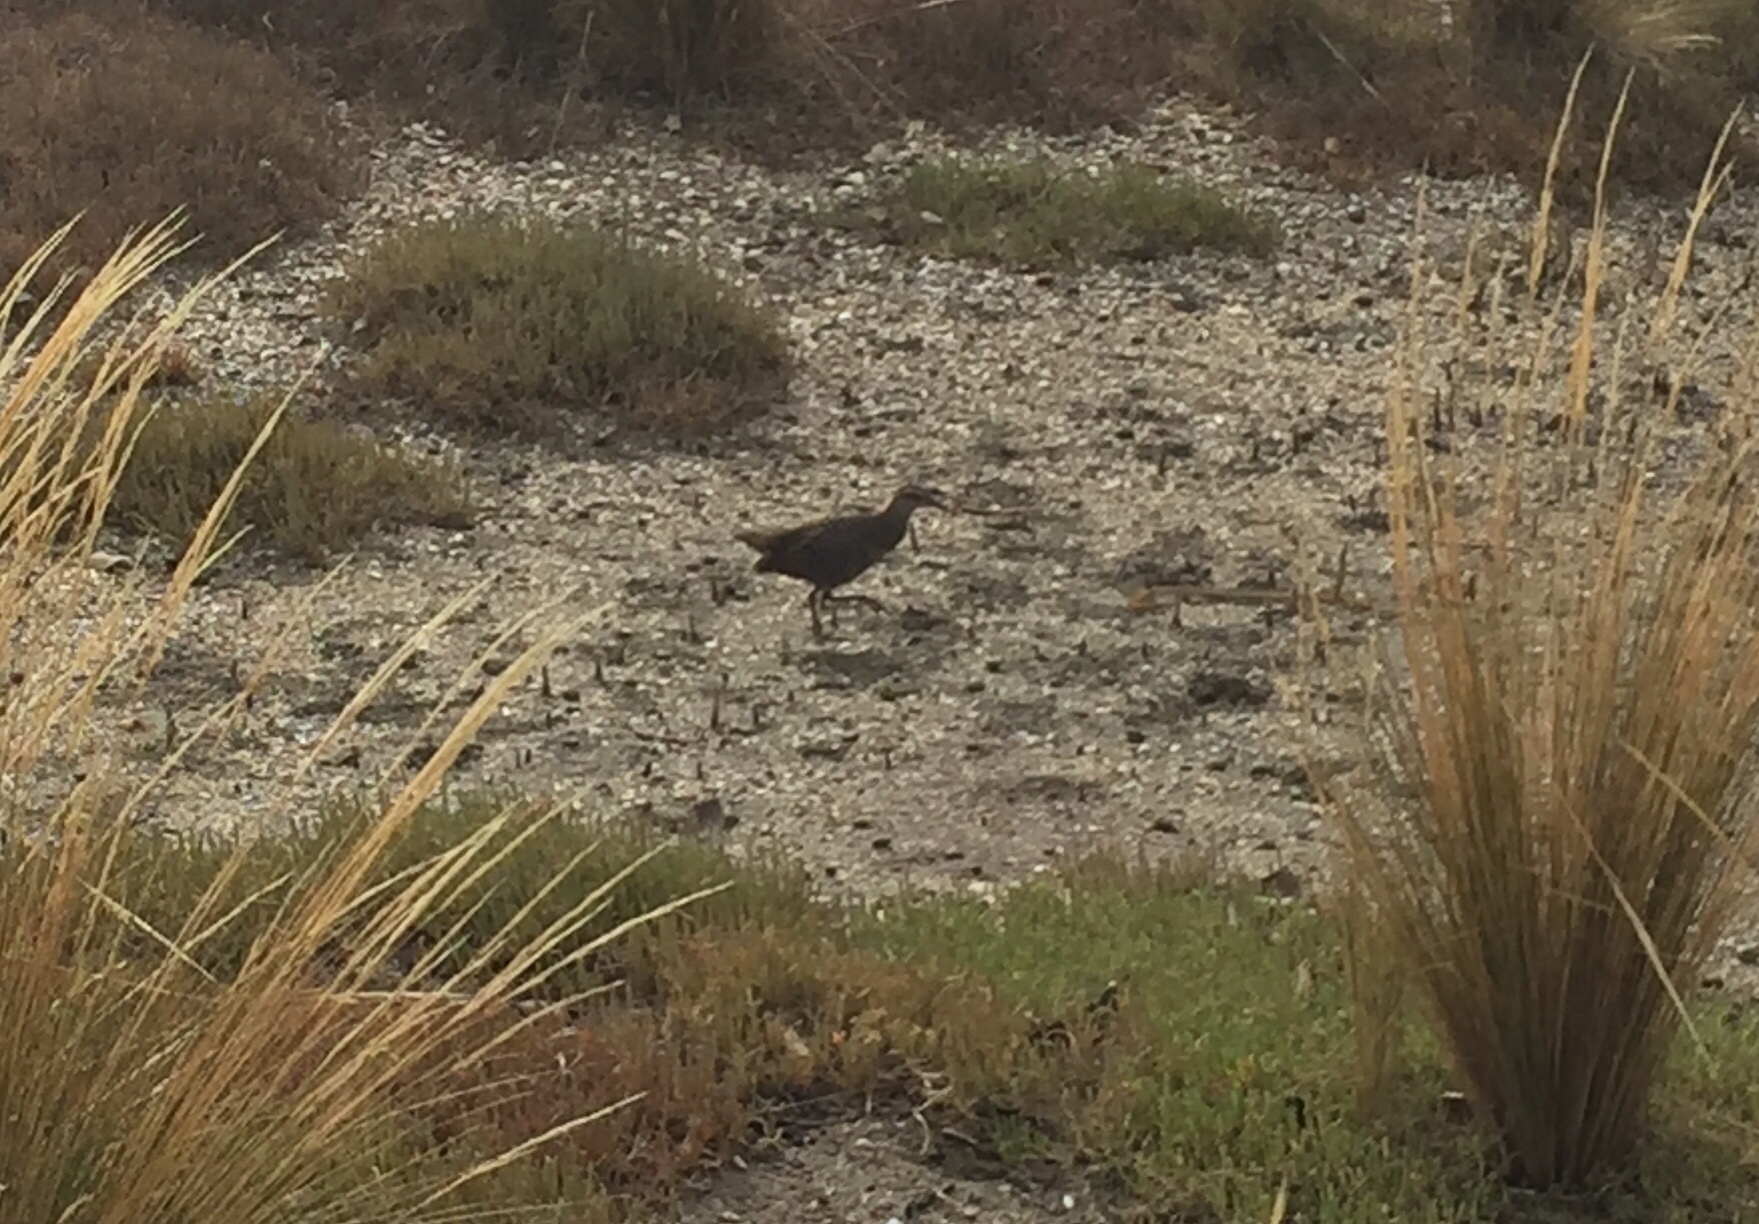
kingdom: Animalia
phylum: Chordata
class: Aves
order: Gruiformes
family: Rallidae
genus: Gallirallus
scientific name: Gallirallus philippensis
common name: Buff-banded rail
